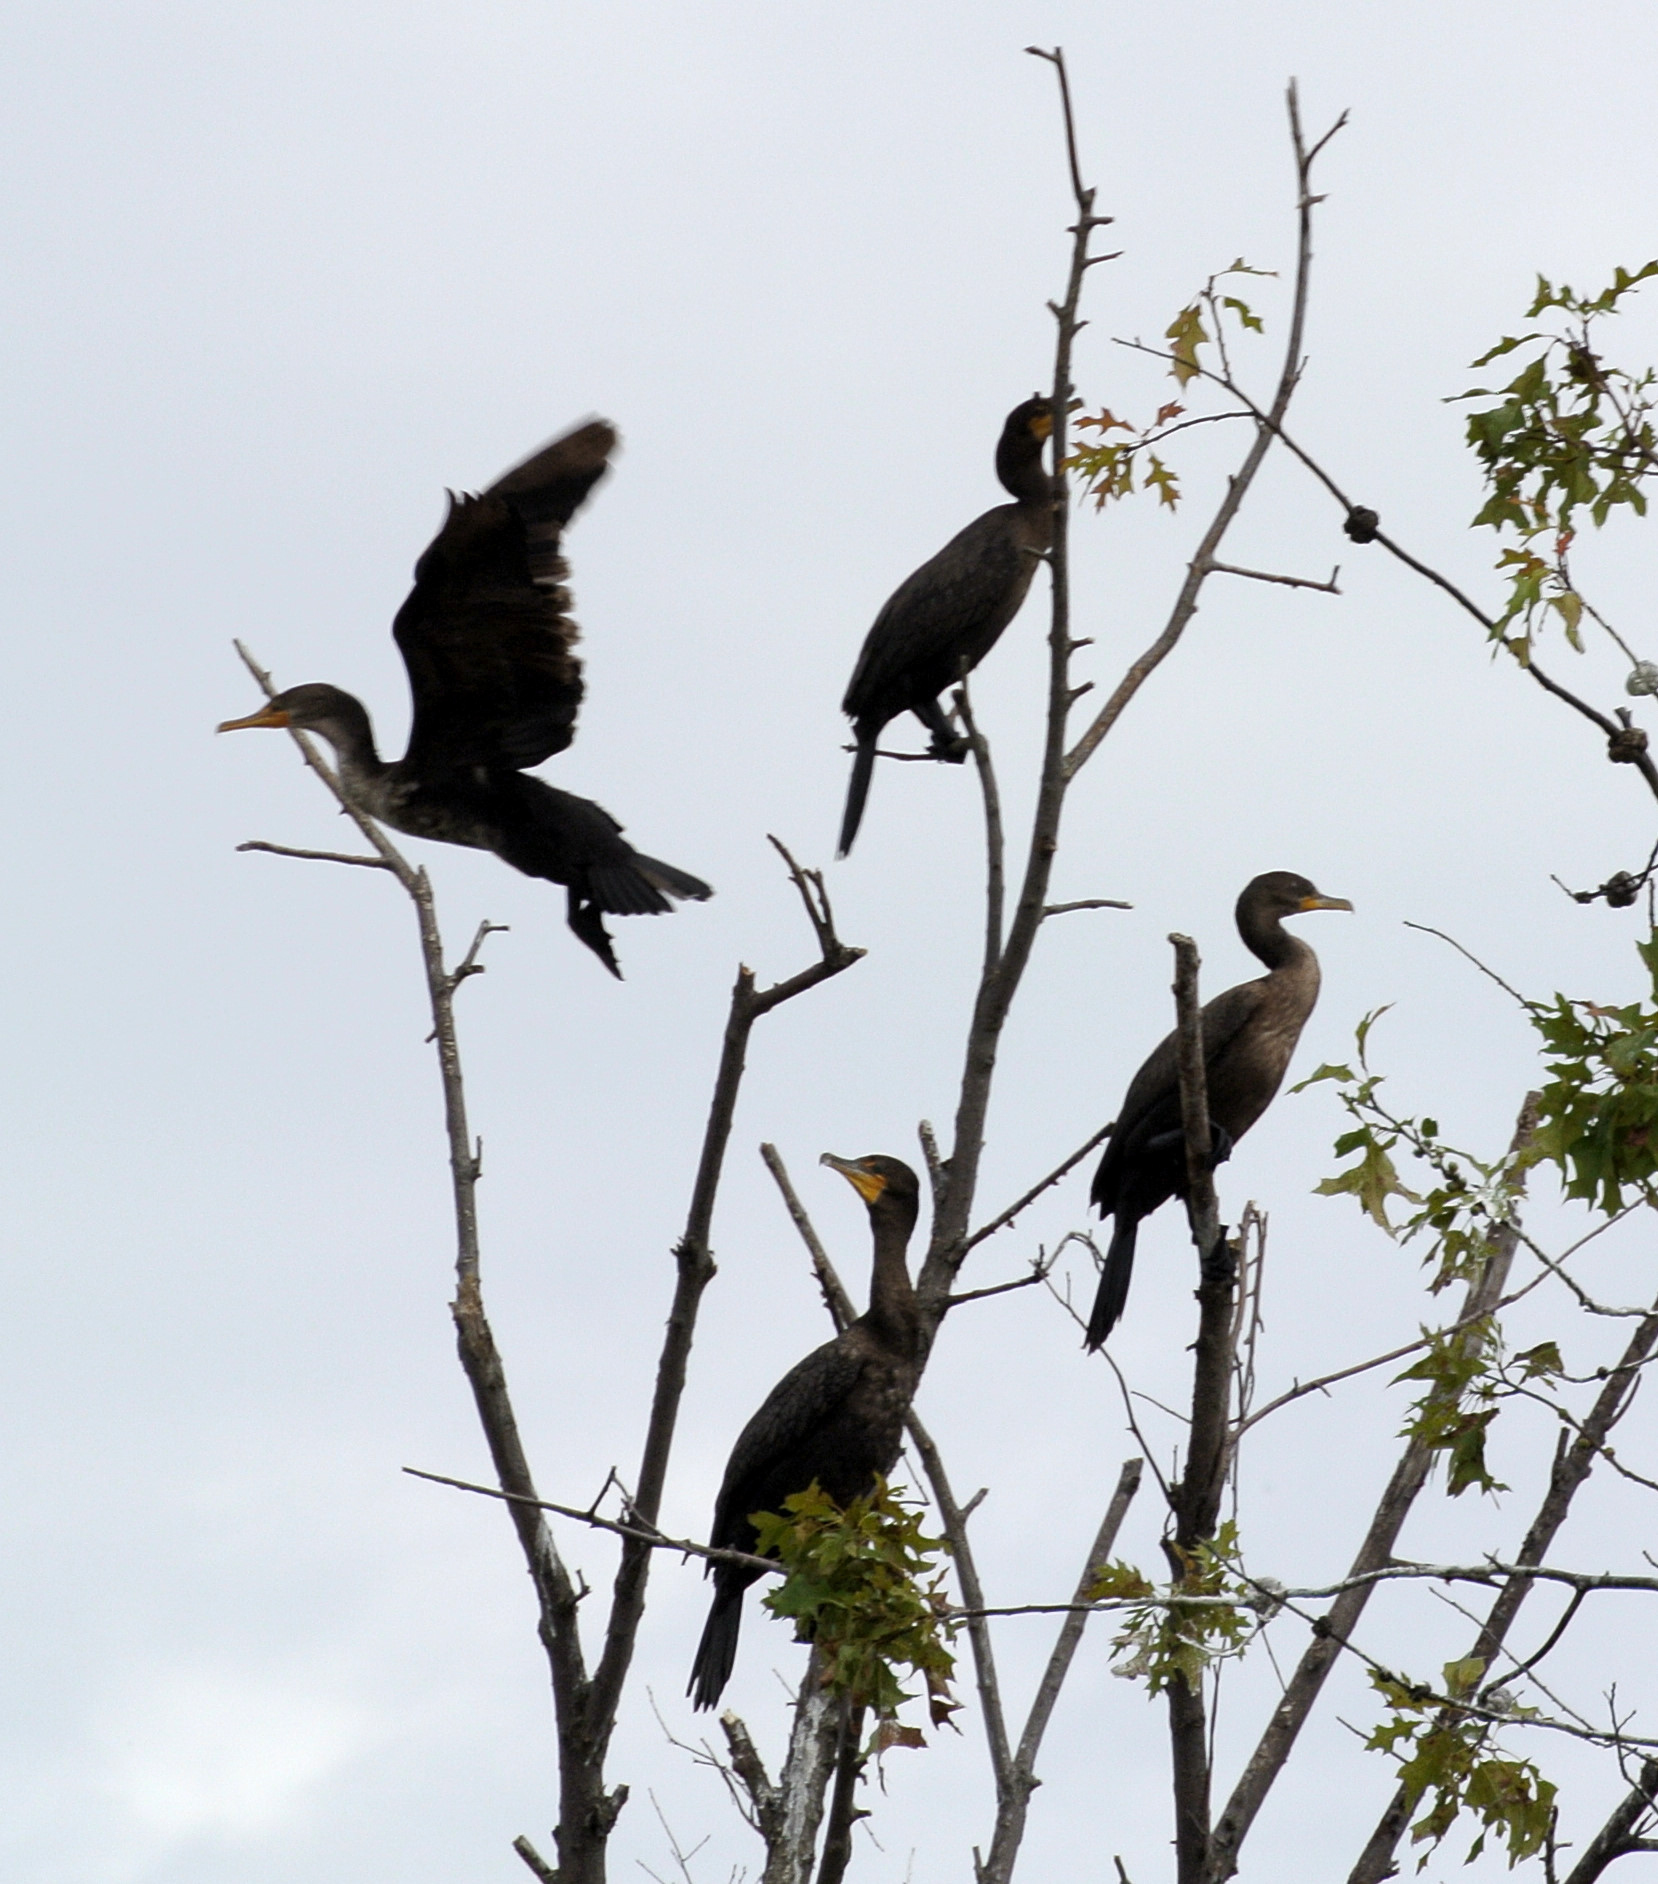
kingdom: Animalia
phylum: Chordata
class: Aves
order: Suliformes
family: Phalacrocoracidae
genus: Phalacrocorax
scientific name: Phalacrocorax auritus
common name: Double-crested cormorant
